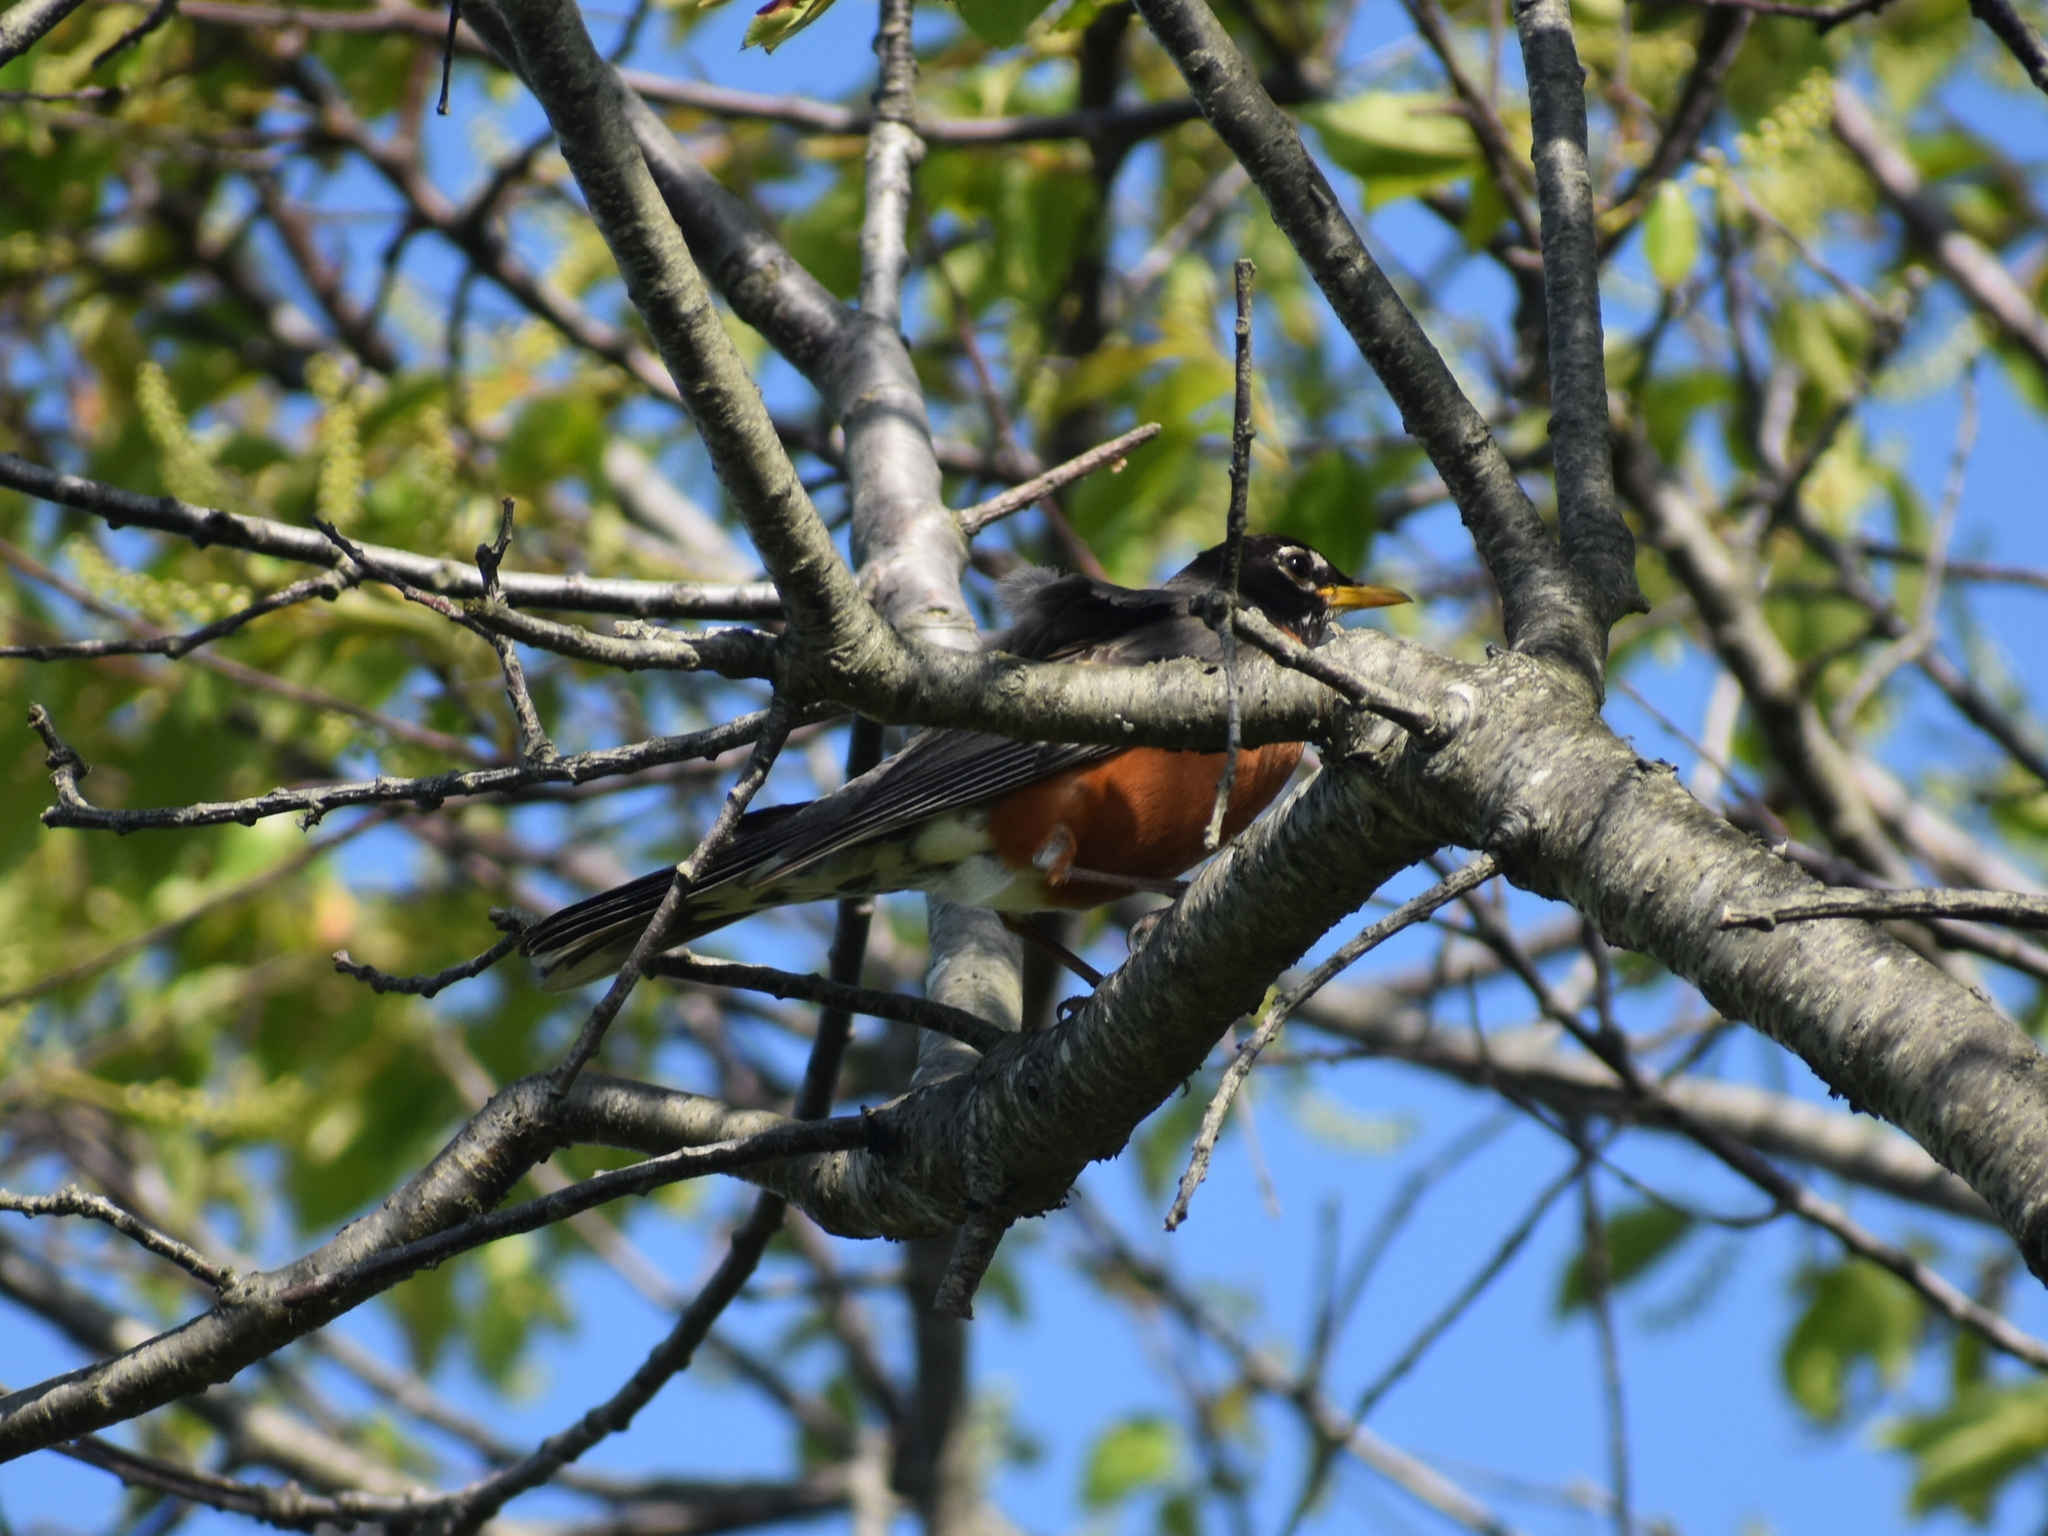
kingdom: Animalia
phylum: Chordata
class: Aves
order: Passeriformes
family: Turdidae
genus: Turdus
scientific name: Turdus migratorius
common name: American robin
